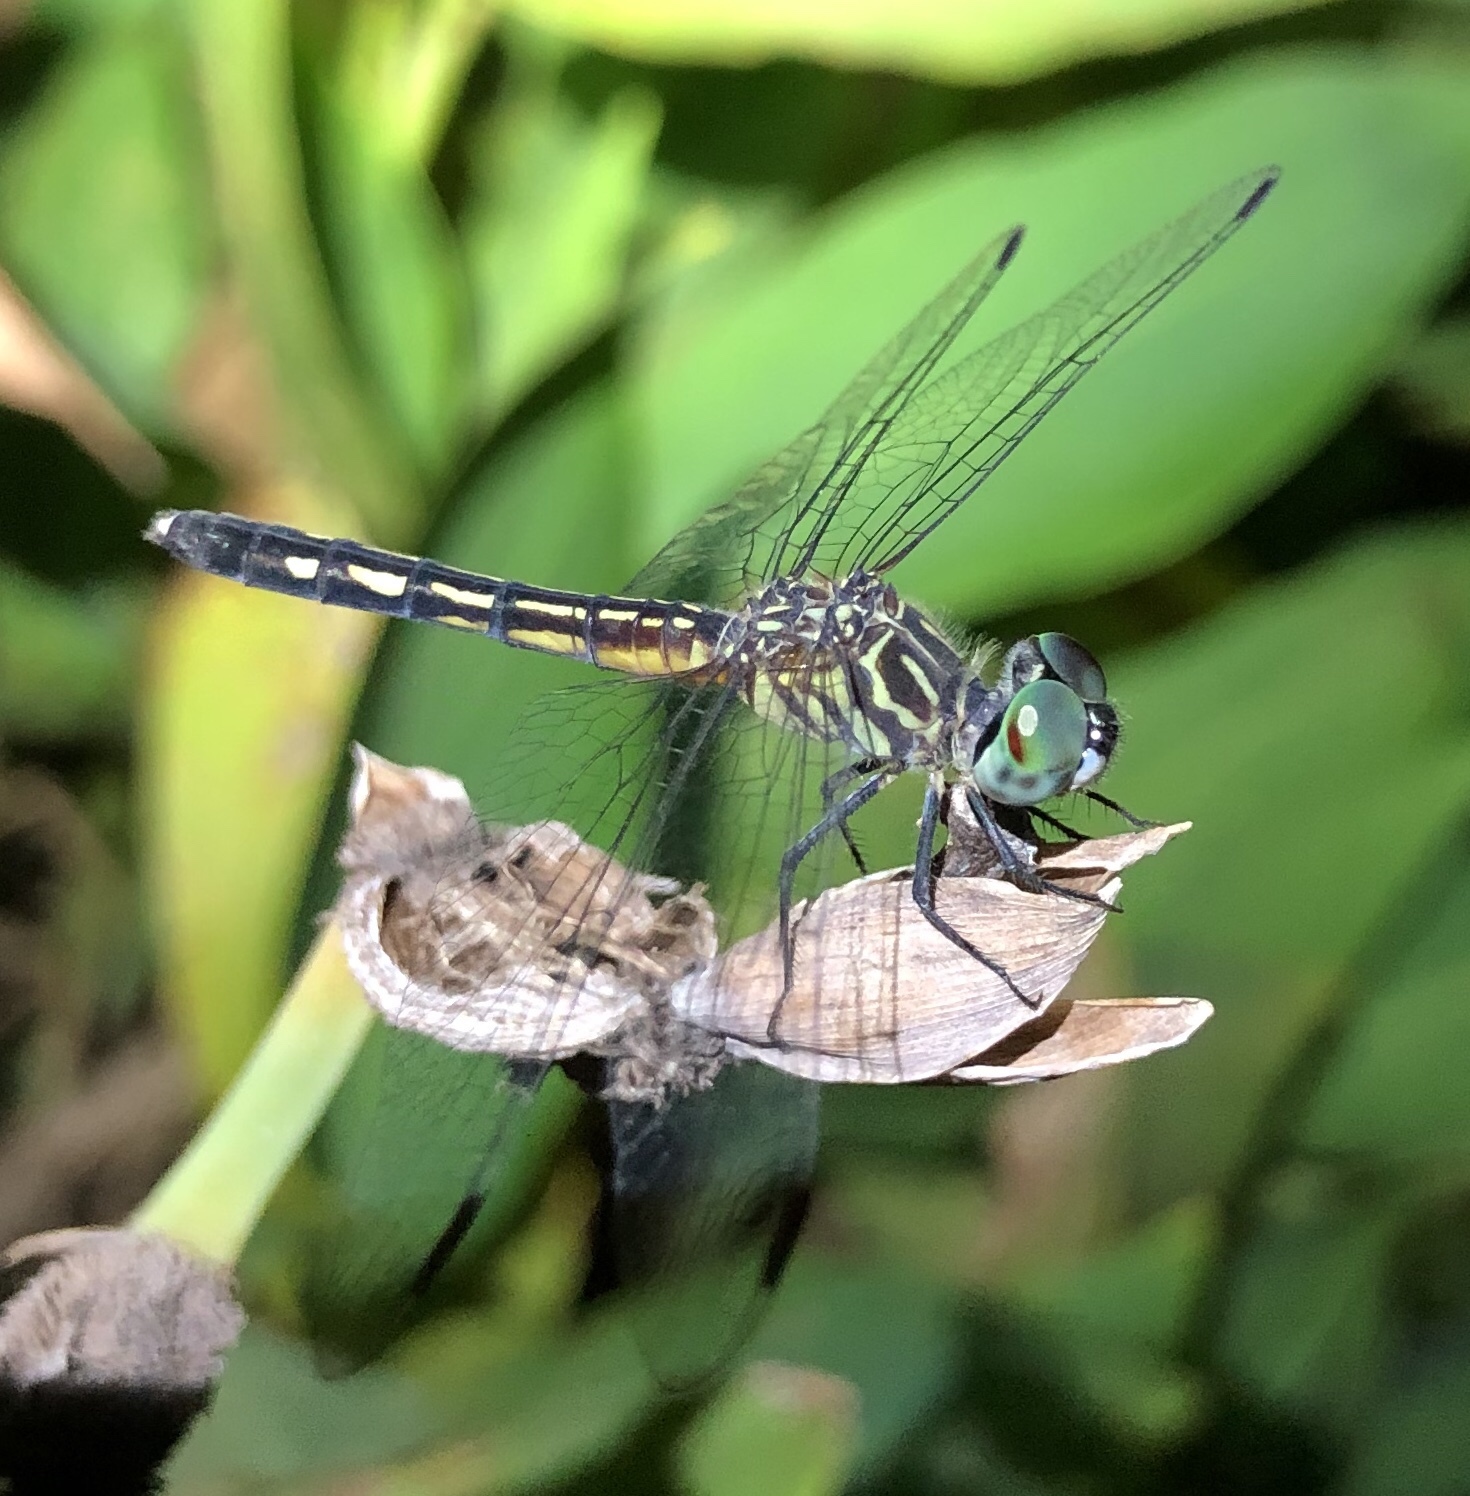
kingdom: Animalia
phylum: Arthropoda
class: Insecta
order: Odonata
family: Libellulidae
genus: Pachydiplax
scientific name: Pachydiplax longipennis
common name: Blue dasher
